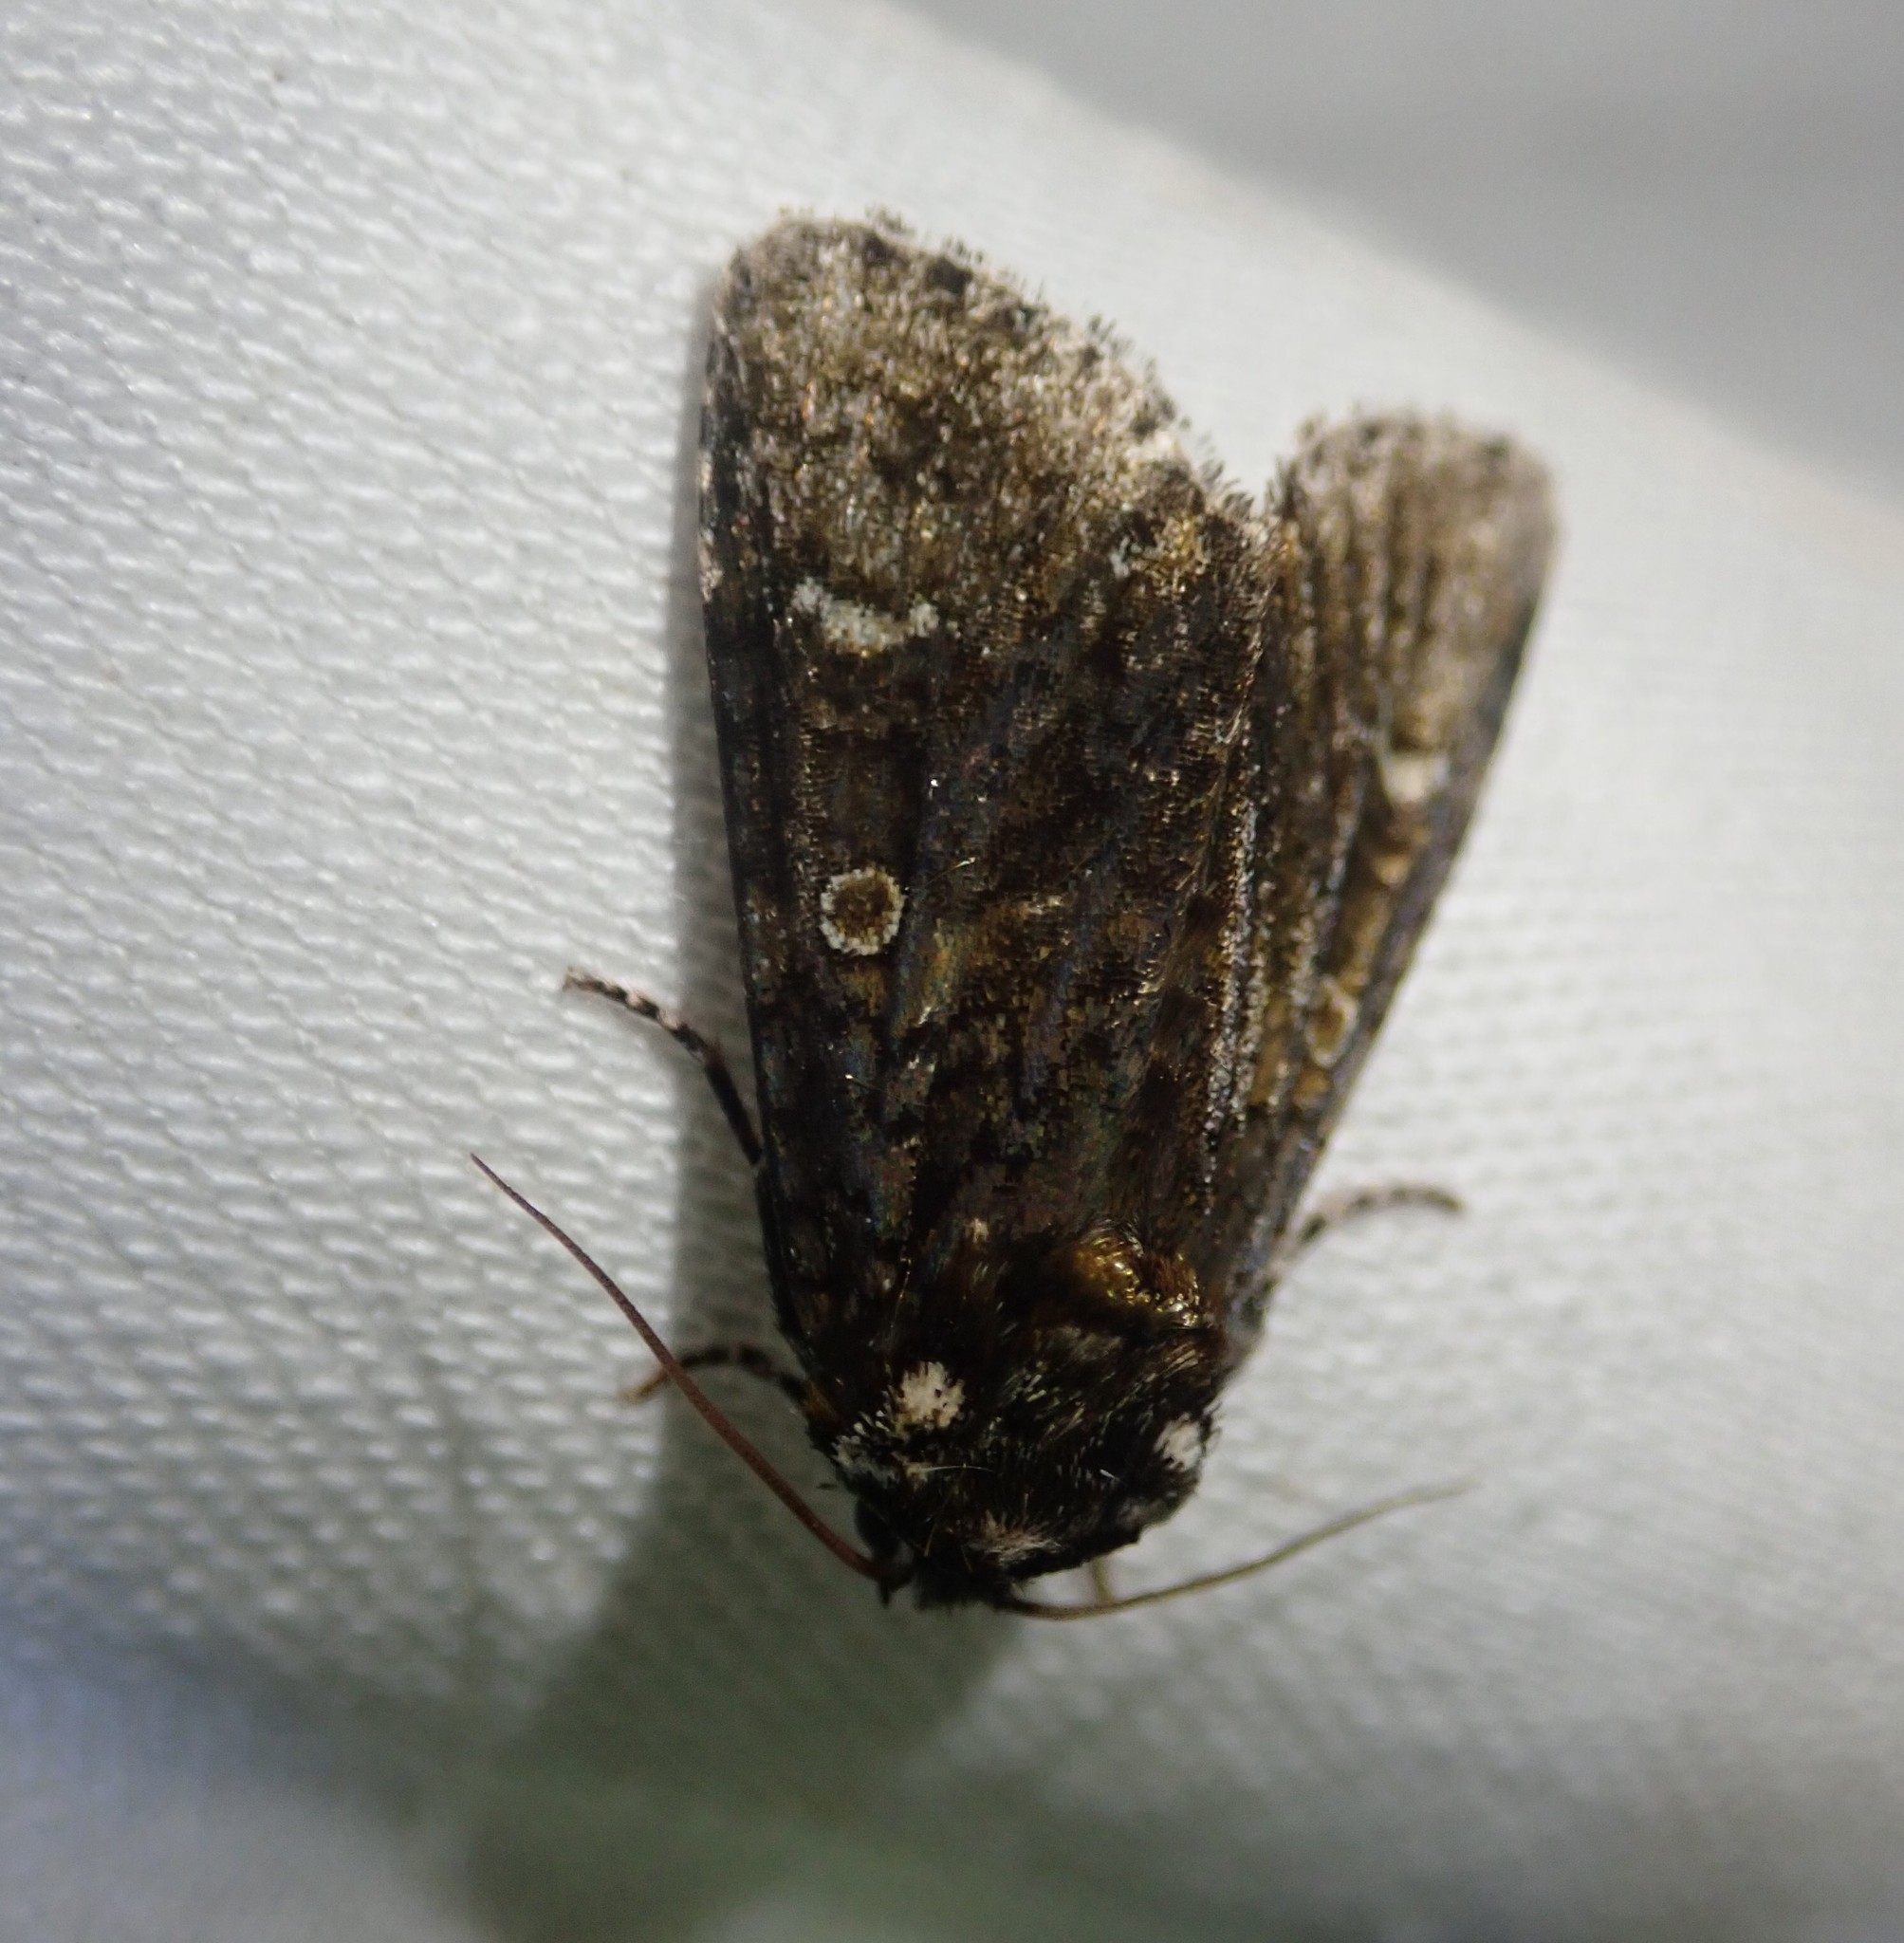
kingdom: Animalia
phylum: Arthropoda
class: Insecta
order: Lepidoptera
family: Noctuidae
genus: Craniophora
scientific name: Craniophora ligustri
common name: Coronet
